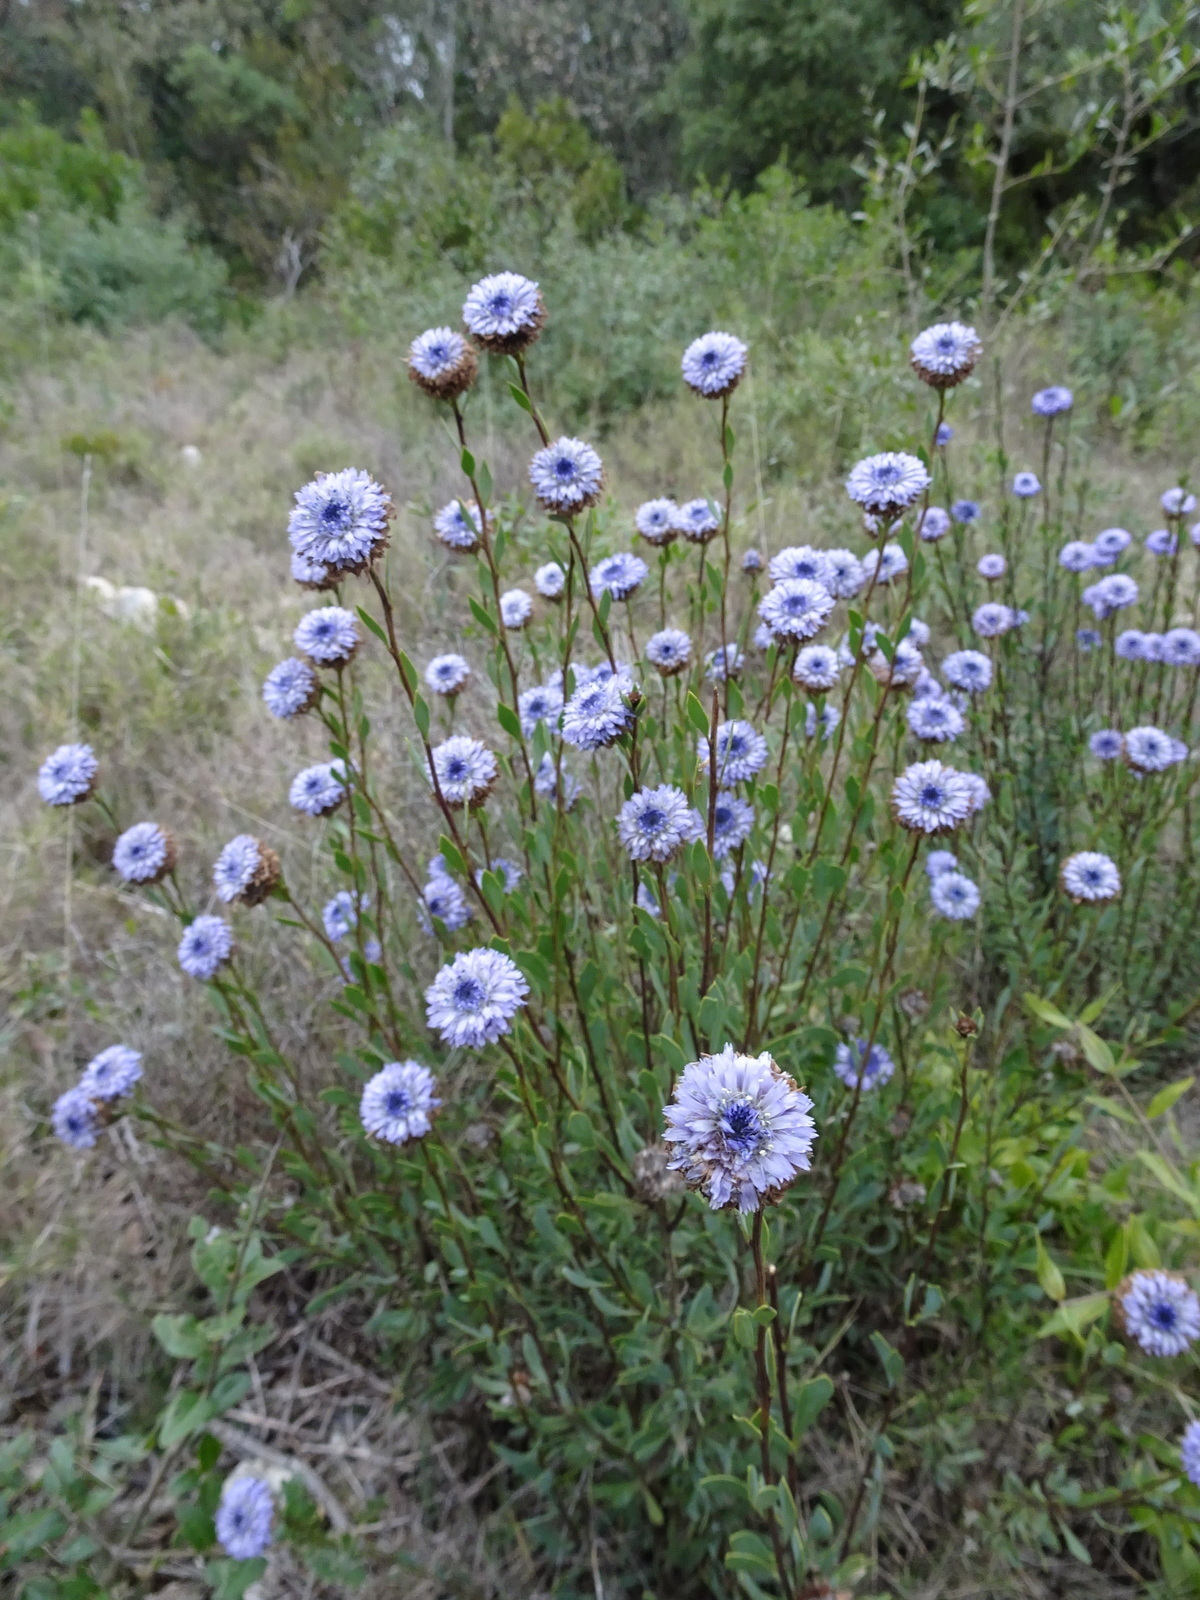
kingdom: Plantae
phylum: Tracheophyta
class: Magnoliopsida
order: Lamiales
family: Plantaginaceae
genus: Globularia
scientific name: Globularia alypum
